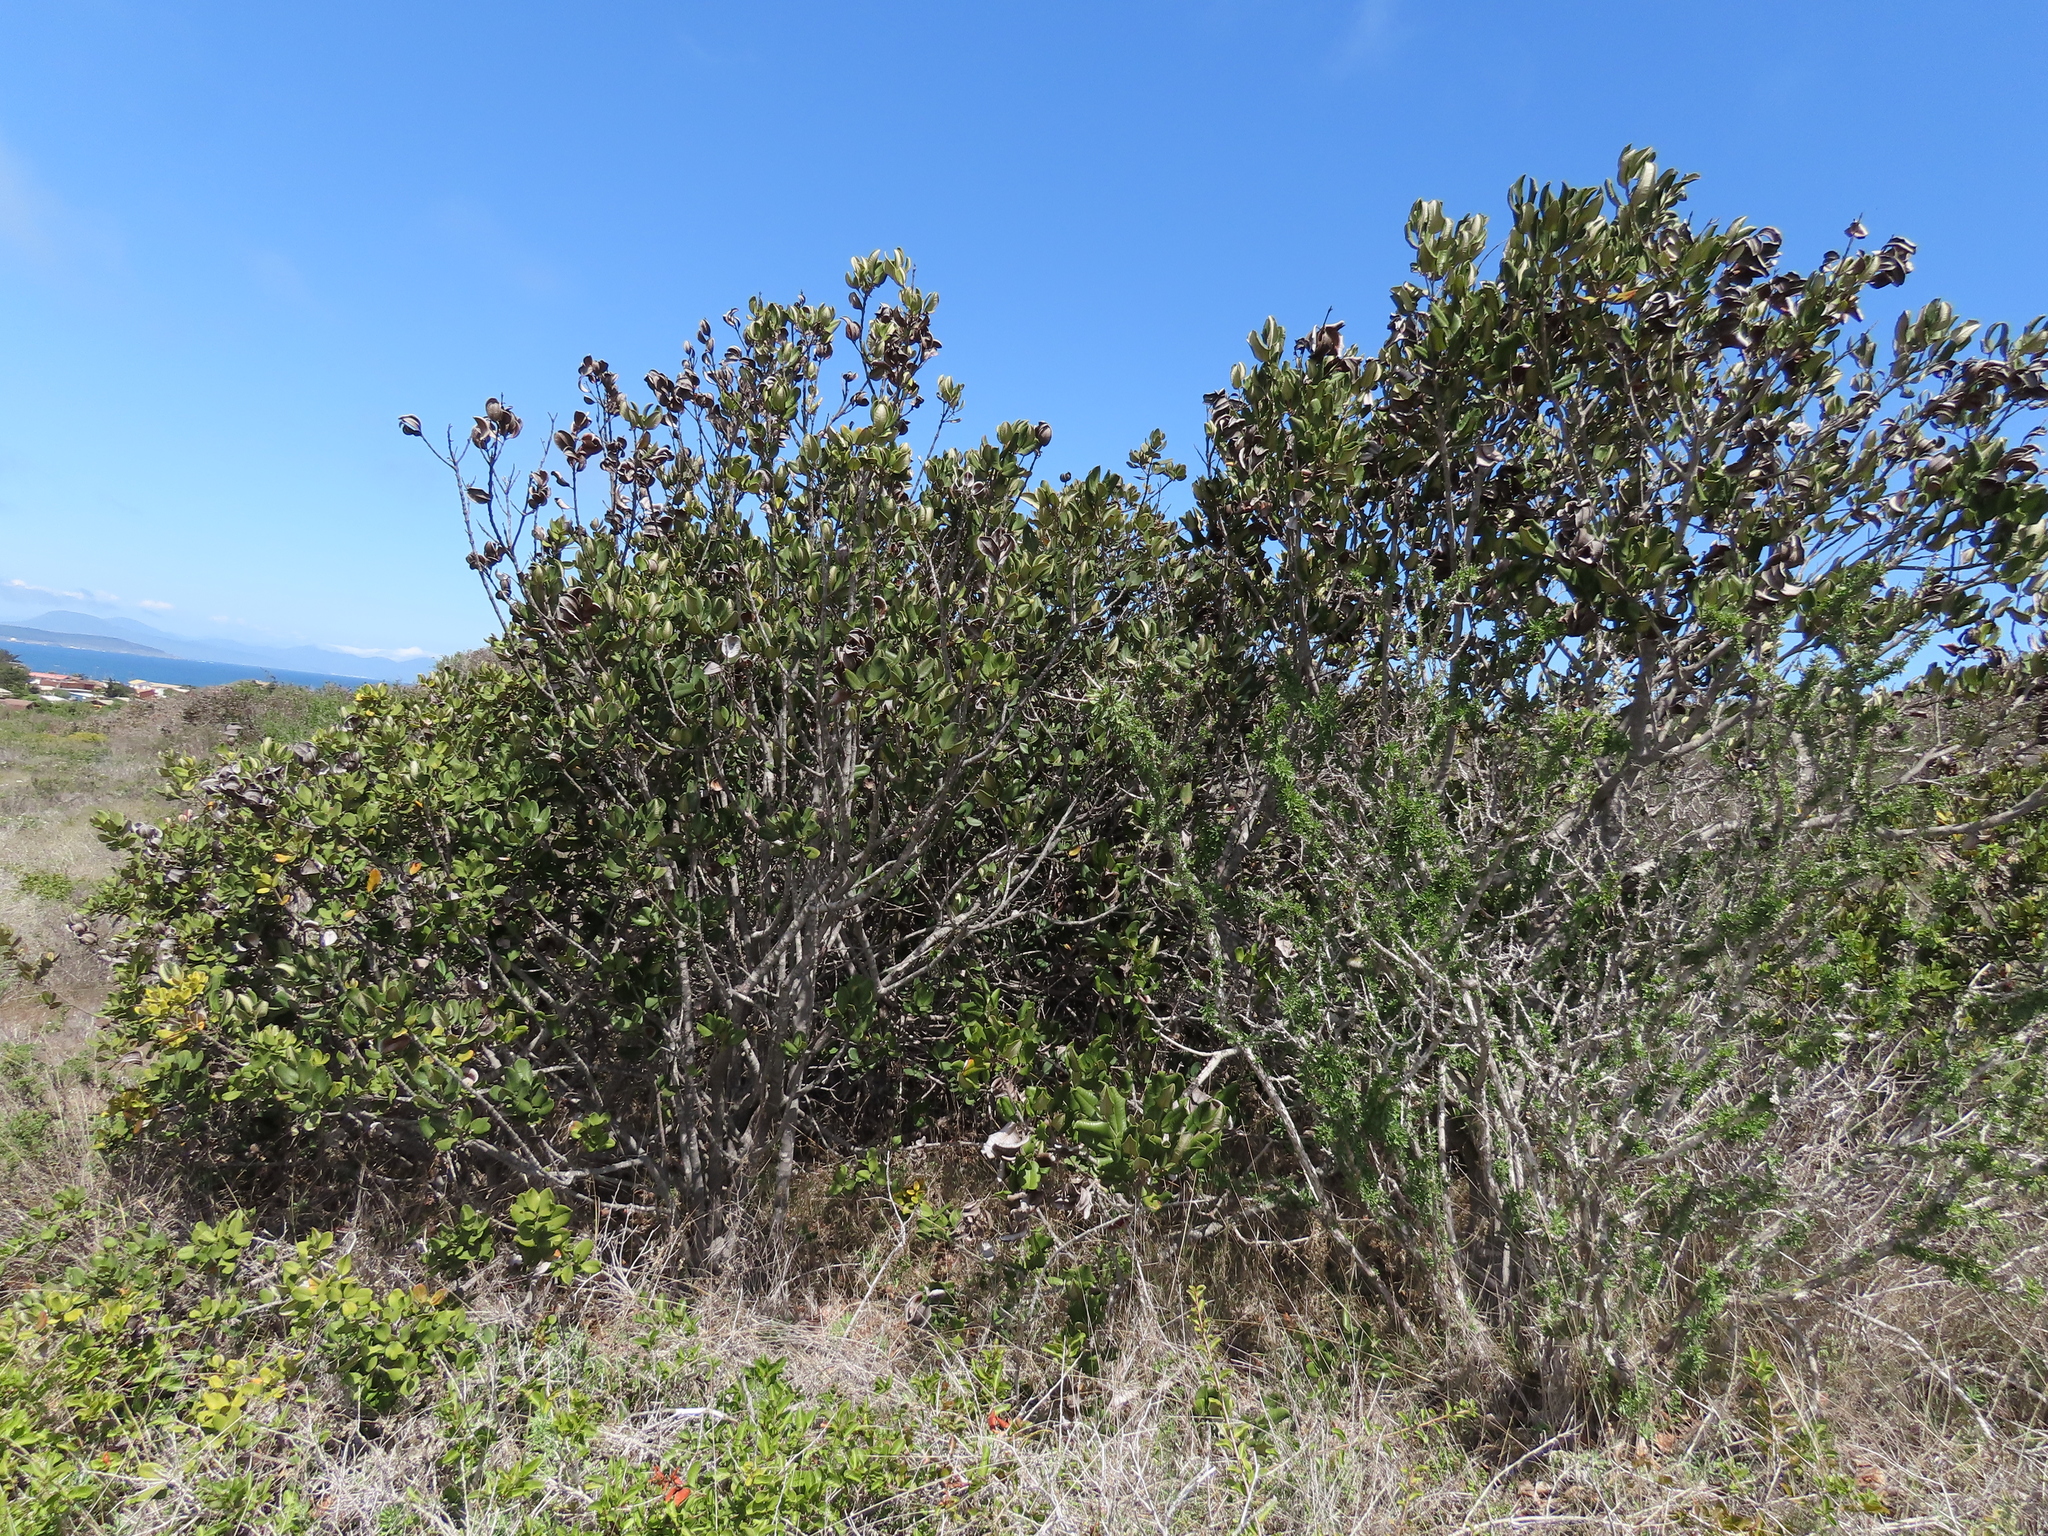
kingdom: Plantae
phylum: Tracheophyta
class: Magnoliopsida
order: Ericales
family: Sapotaceae
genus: Pouteria
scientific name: Pouteria valparadisaea
